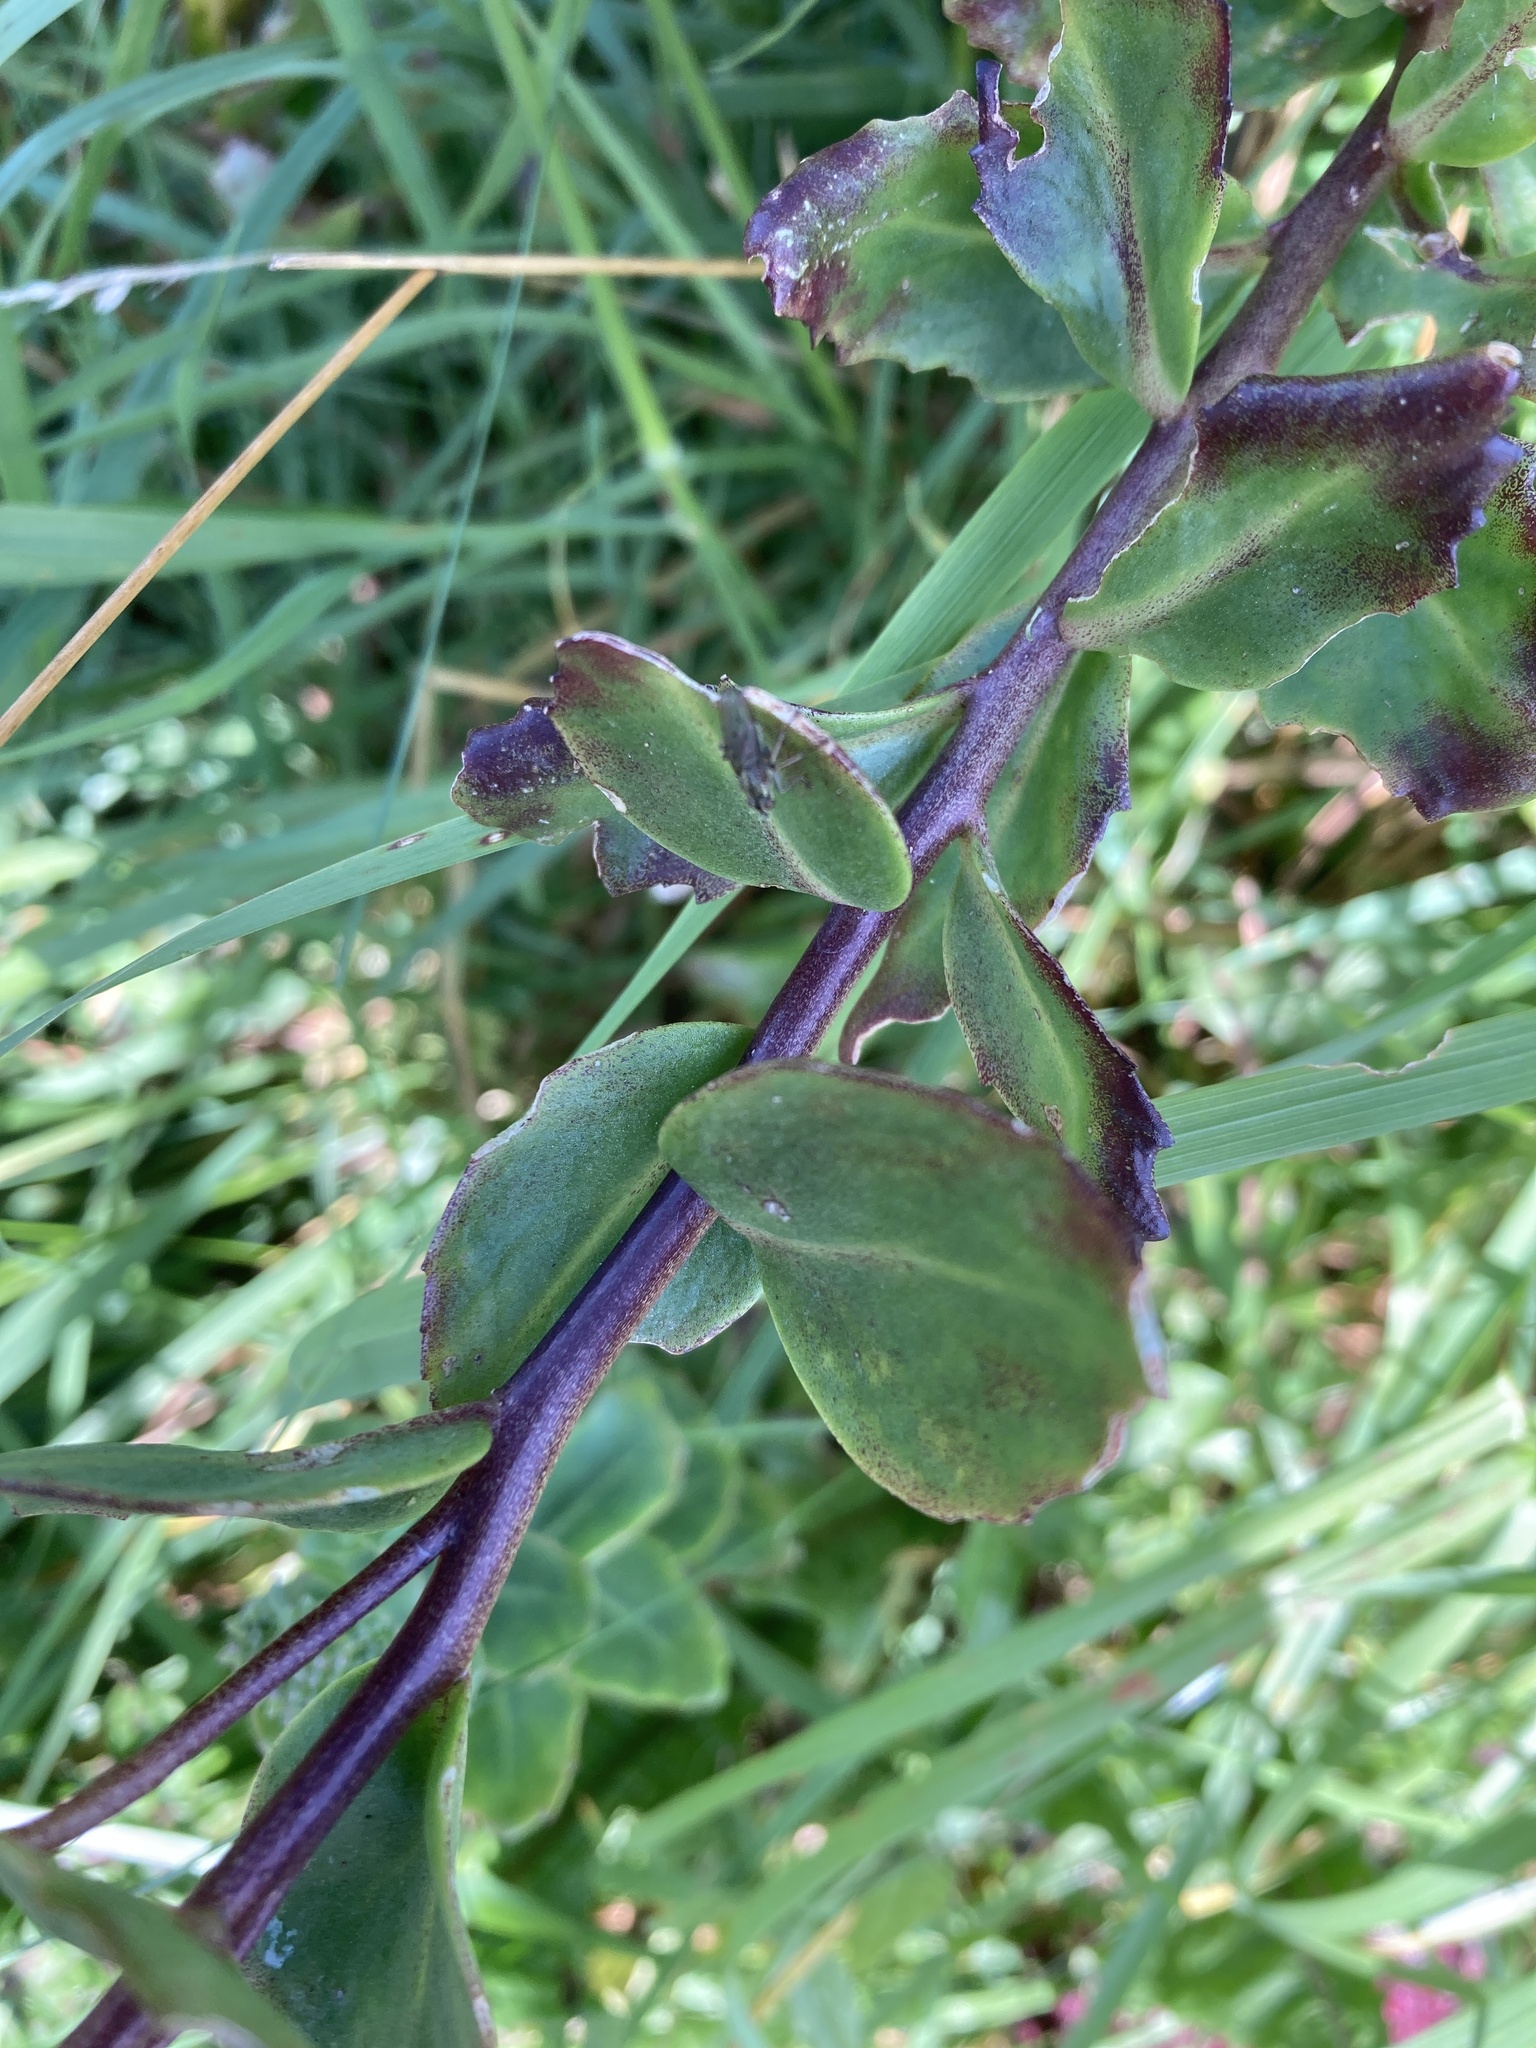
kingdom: Plantae
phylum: Tracheophyta
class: Magnoliopsida
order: Saxifragales
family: Crassulaceae
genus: Hylotelephium
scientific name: Hylotelephium telephium
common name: Live-forever
